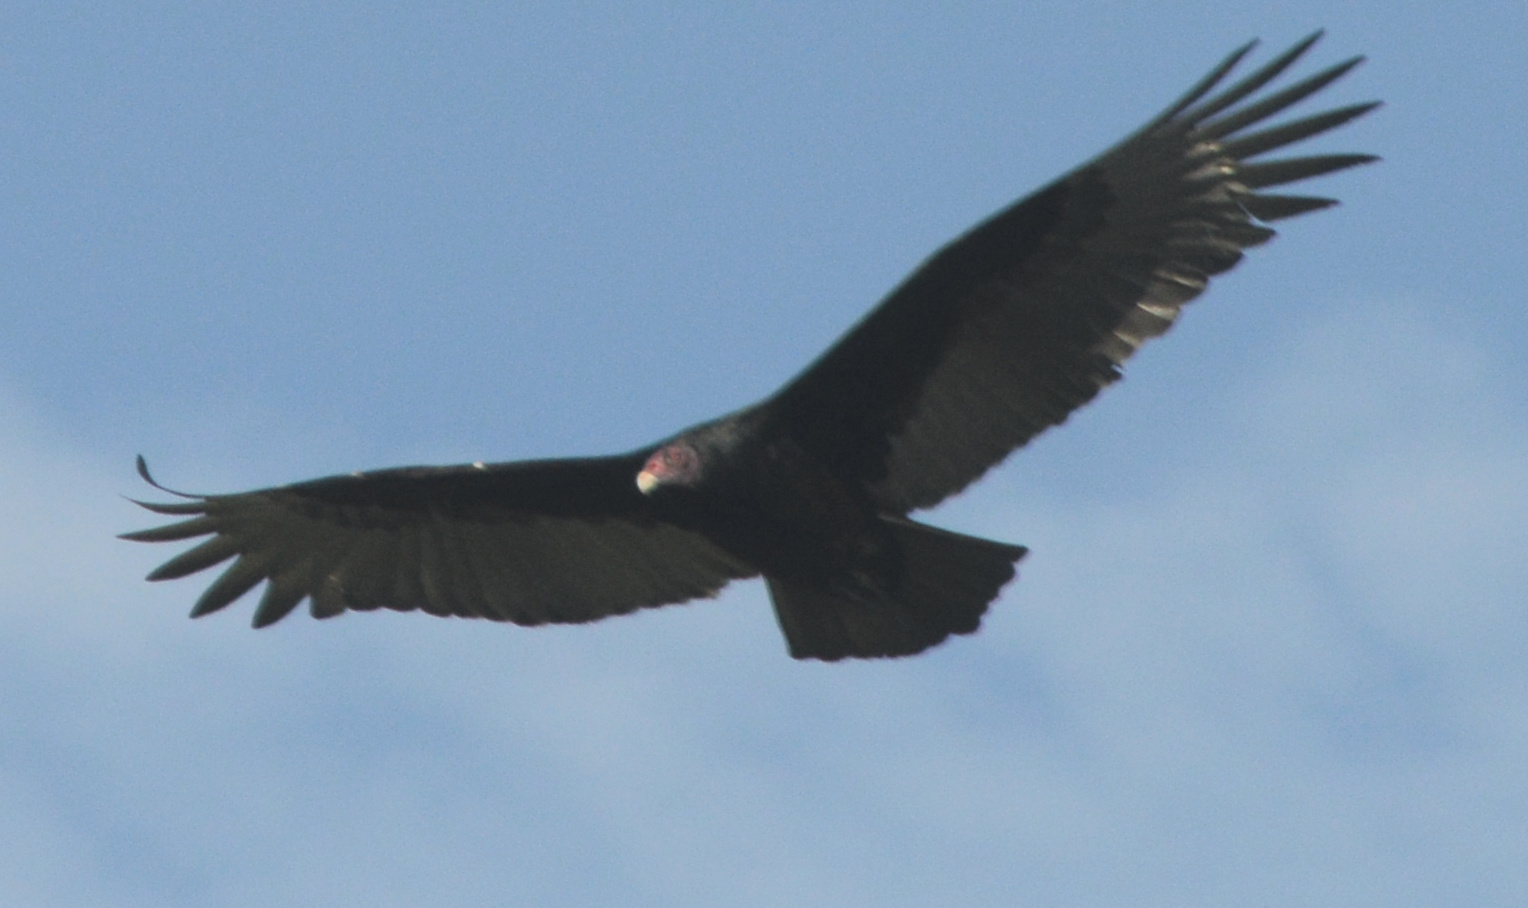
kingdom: Animalia
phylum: Chordata
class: Aves
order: Accipitriformes
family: Cathartidae
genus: Cathartes
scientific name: Cathartes aura
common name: Turkey vulture
